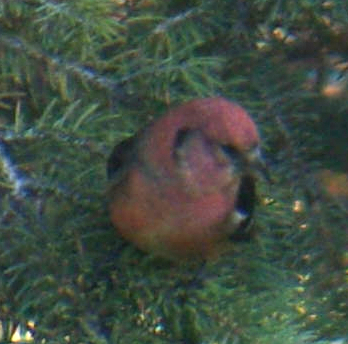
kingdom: Animalia
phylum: Chordata
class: Aves
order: Passeriformes
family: Fringillidae
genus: Loxia
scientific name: Loxia leucoptera
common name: Two-barred crossbill
